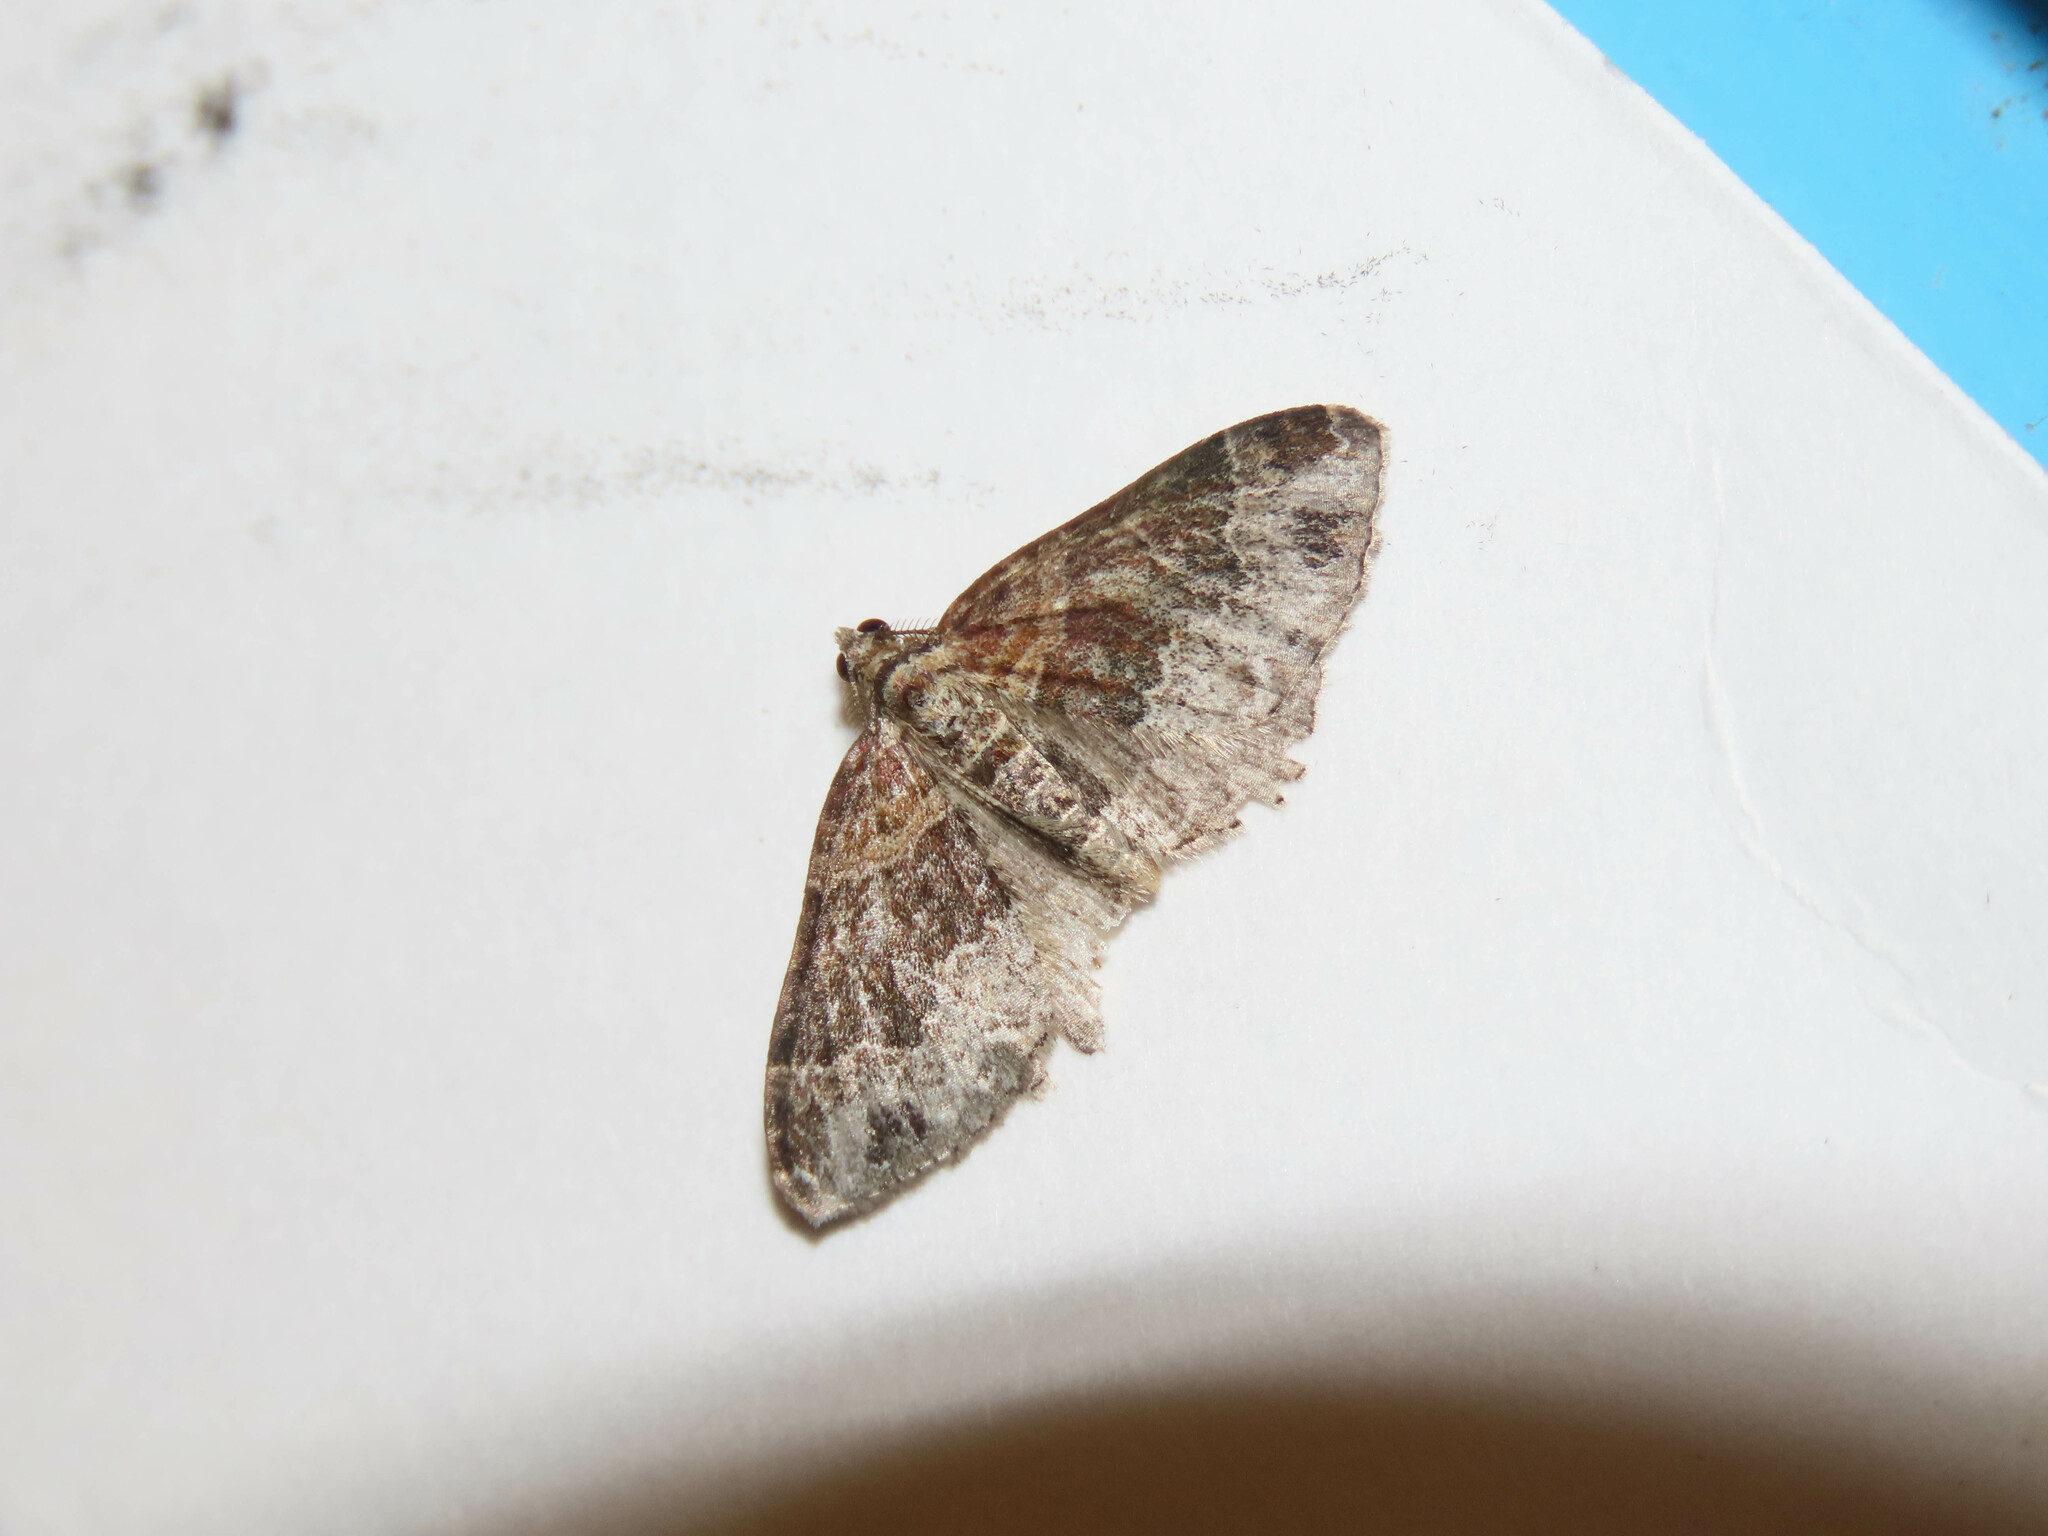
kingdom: Animalia
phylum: Arthropoda
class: Insecta
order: Lepidoptera
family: Geometridae
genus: Xanthorhoe
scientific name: Xanthorhoe ferrugata
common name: Dark-barred twin-spot carpet
